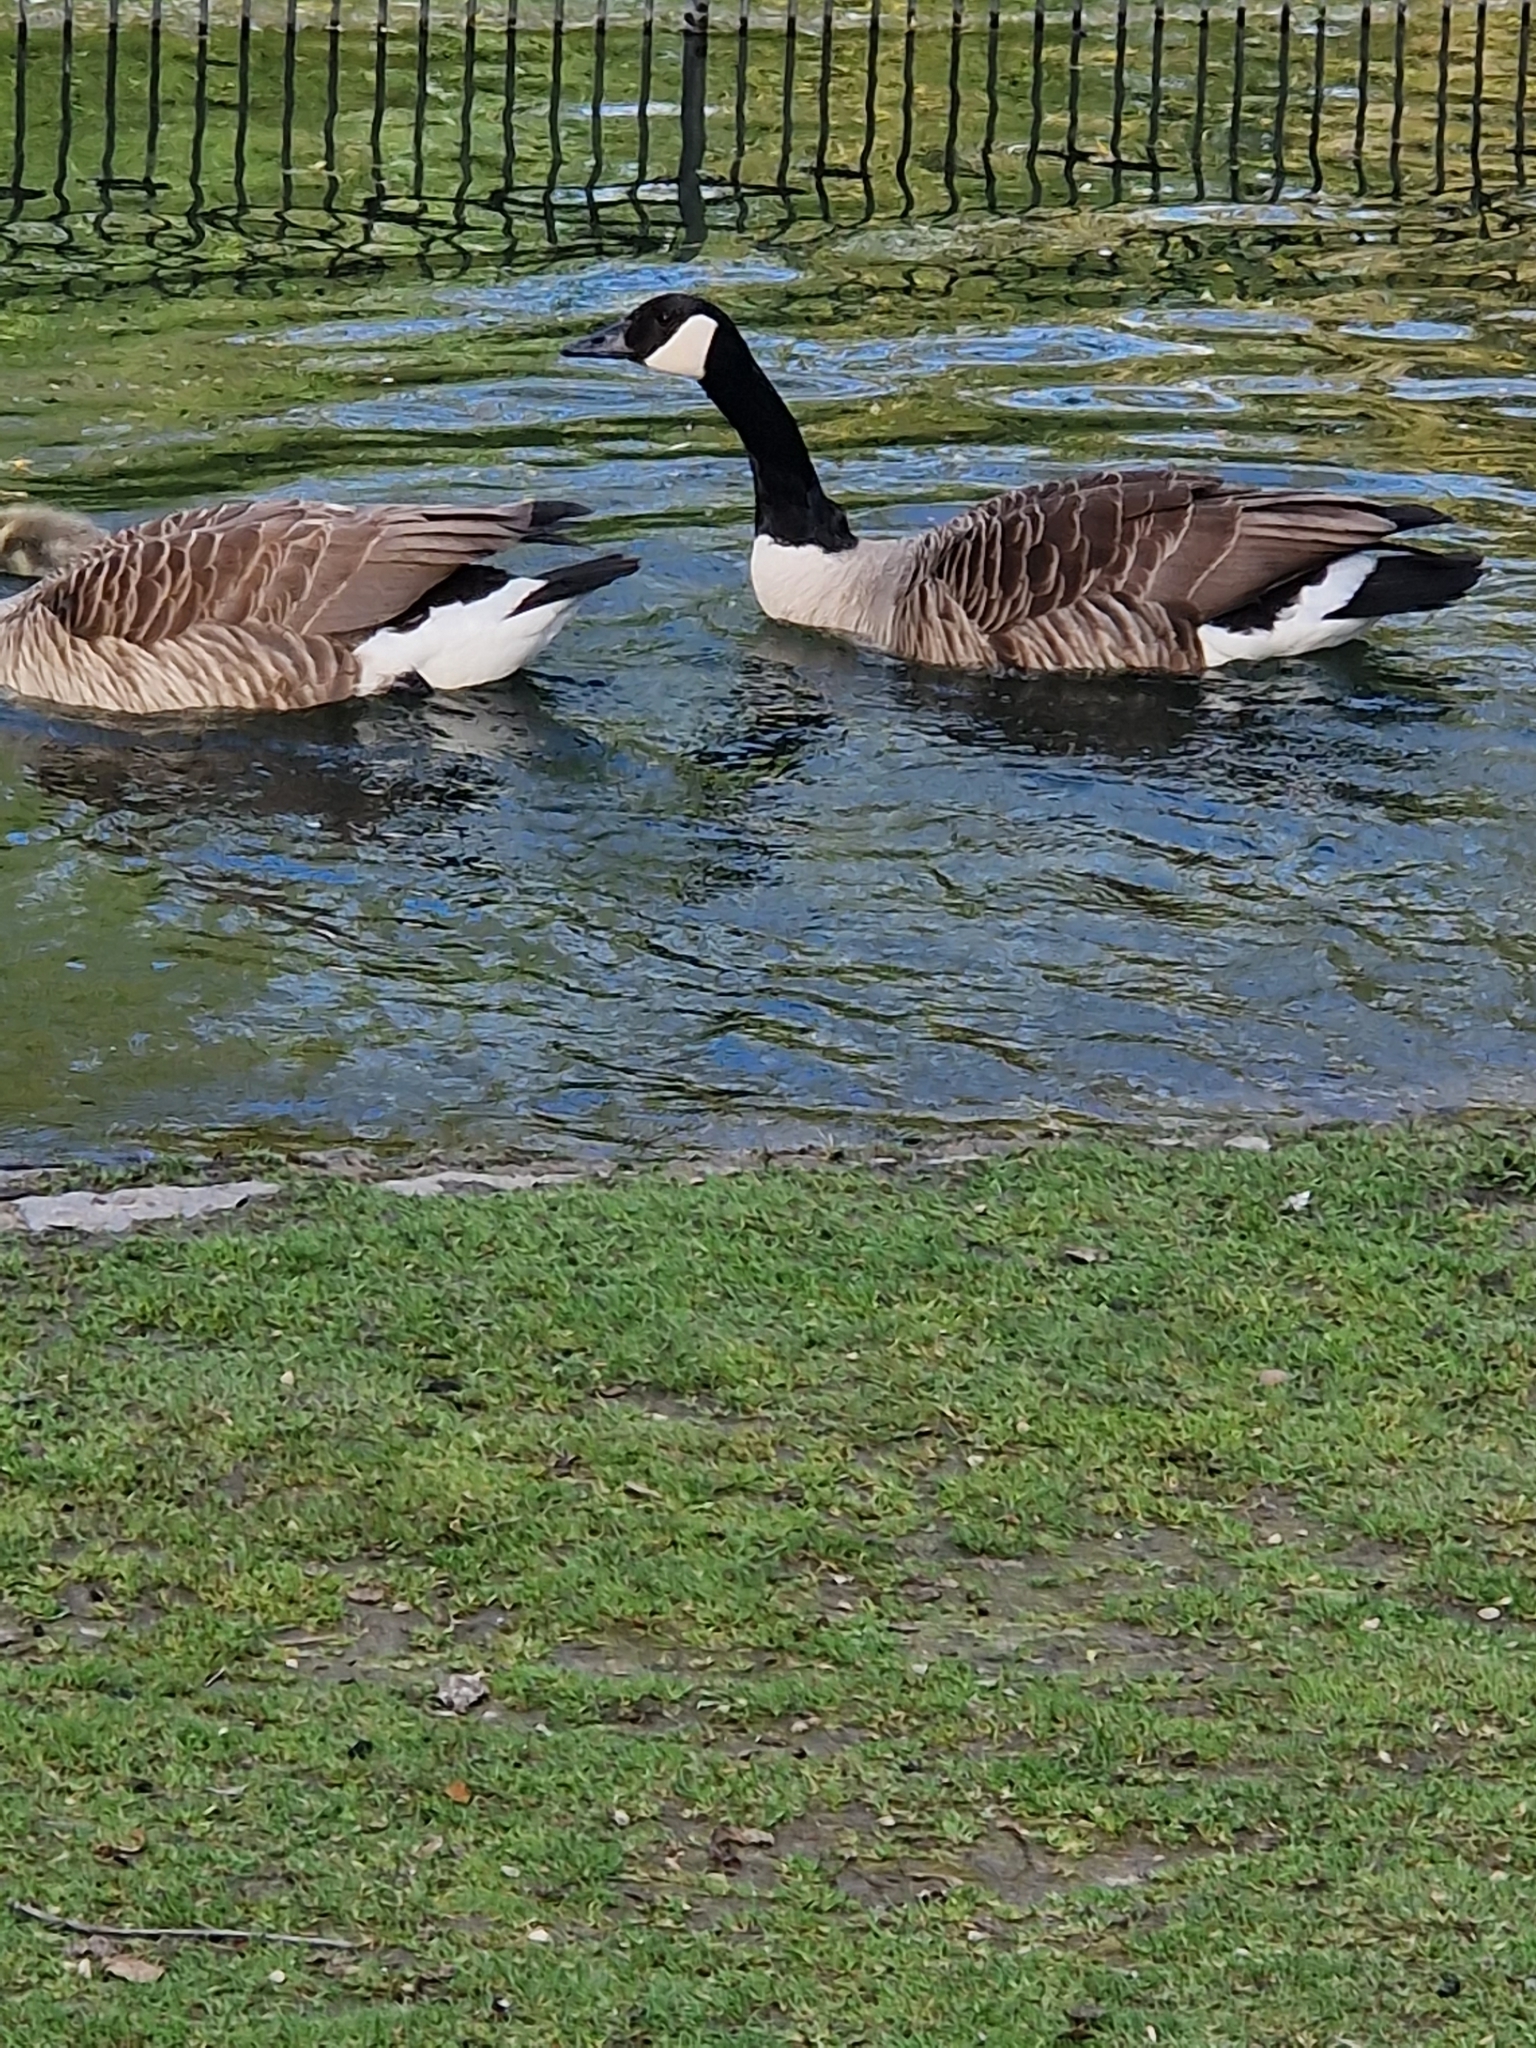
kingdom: Animalia
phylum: Chordata
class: Aves
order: Anseriformes
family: Anatidae
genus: Branta
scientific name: Branta canadensis
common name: Canada goose
